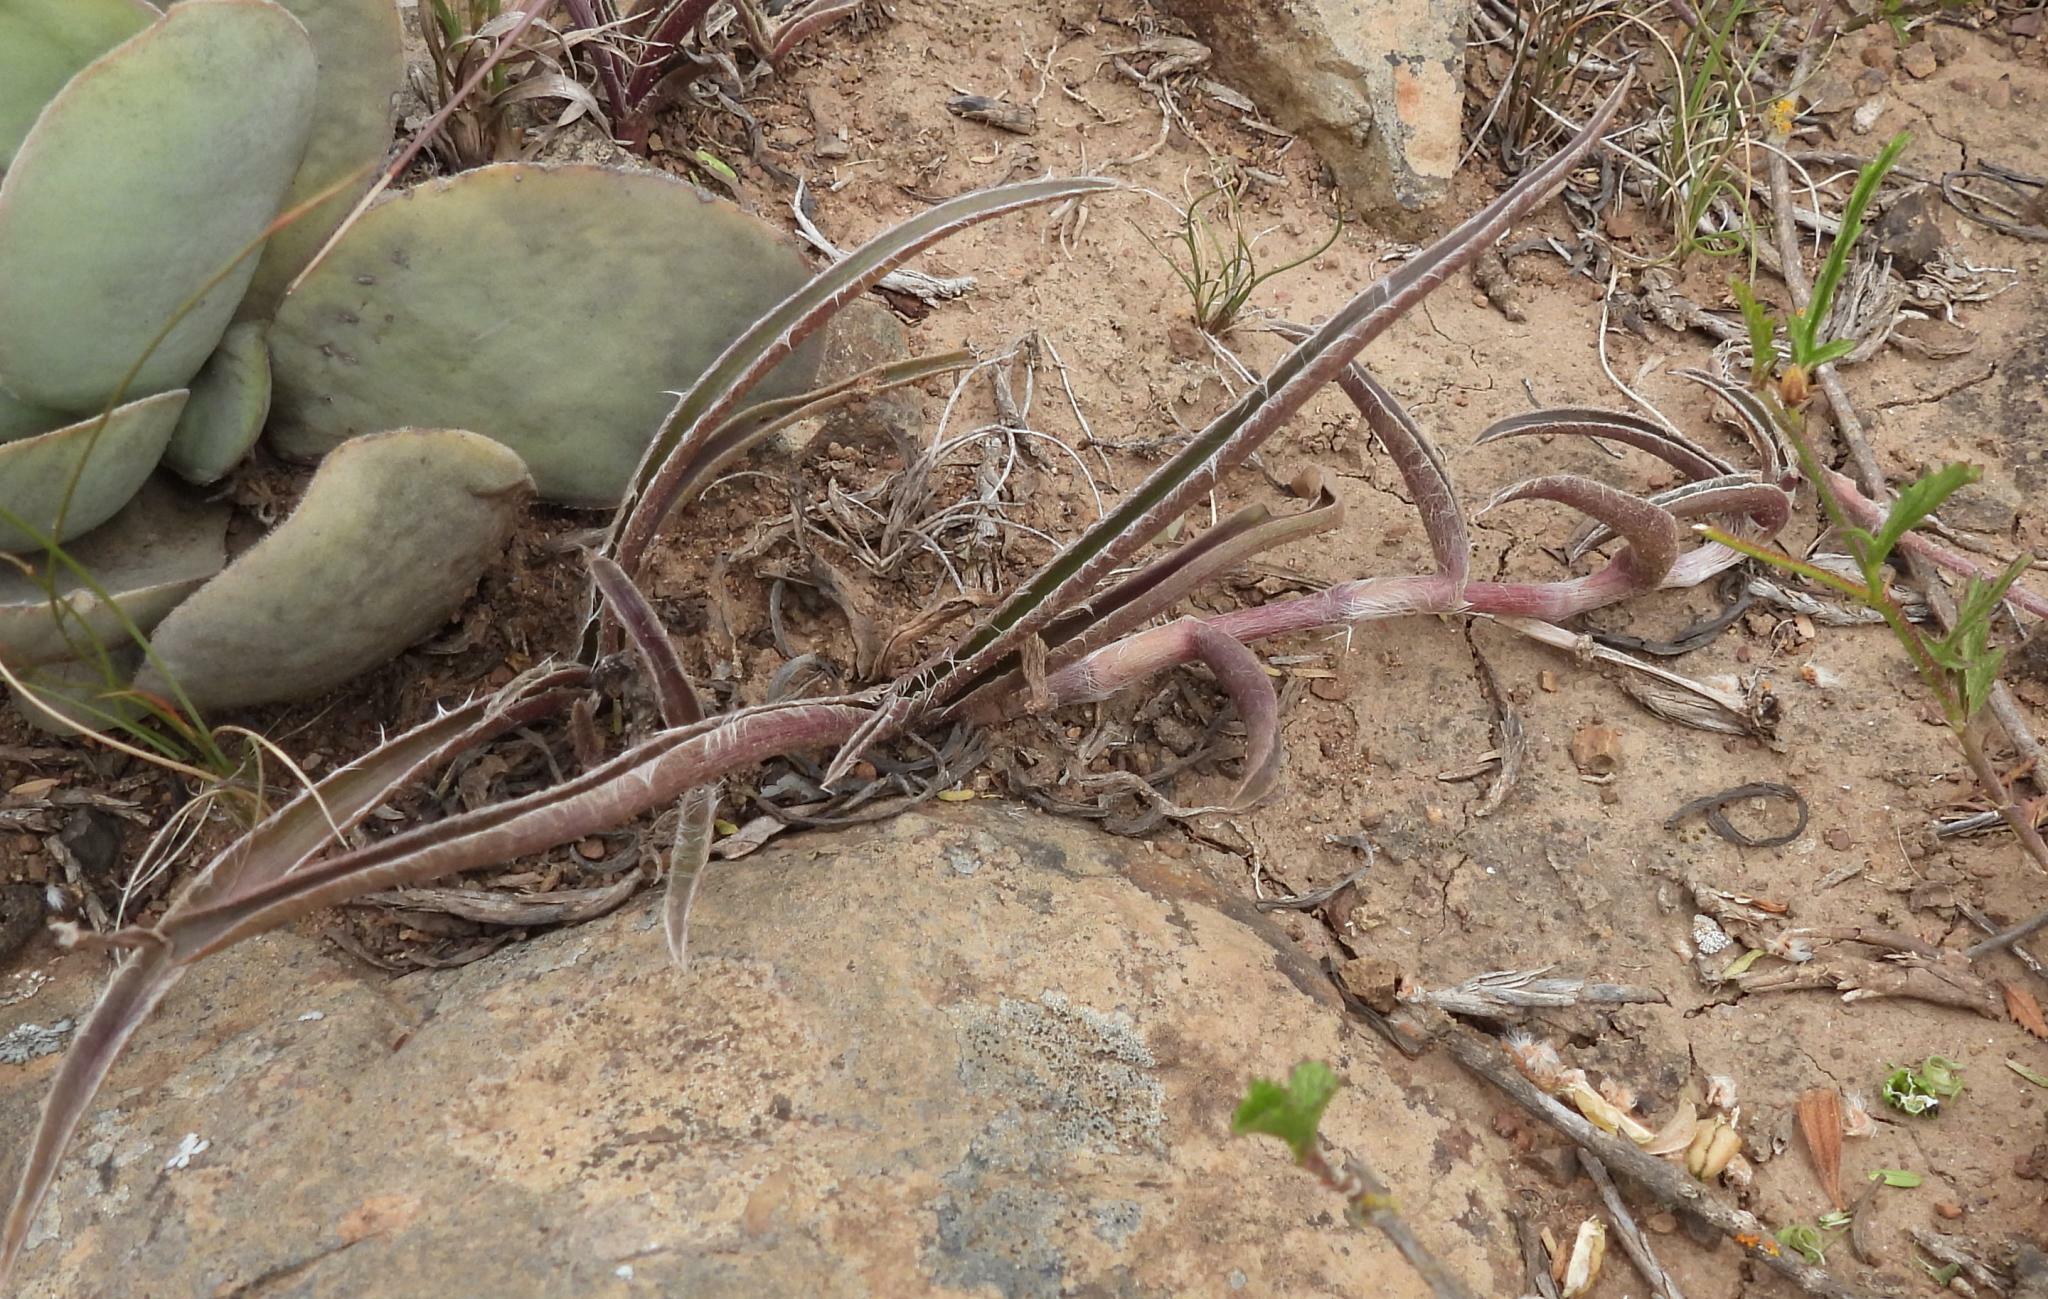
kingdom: Plantae
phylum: Tracheophyta
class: Liliopsida
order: Commelinales
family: Commelinaceae
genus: Cyanotis
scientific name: Cyanotis speciosa
